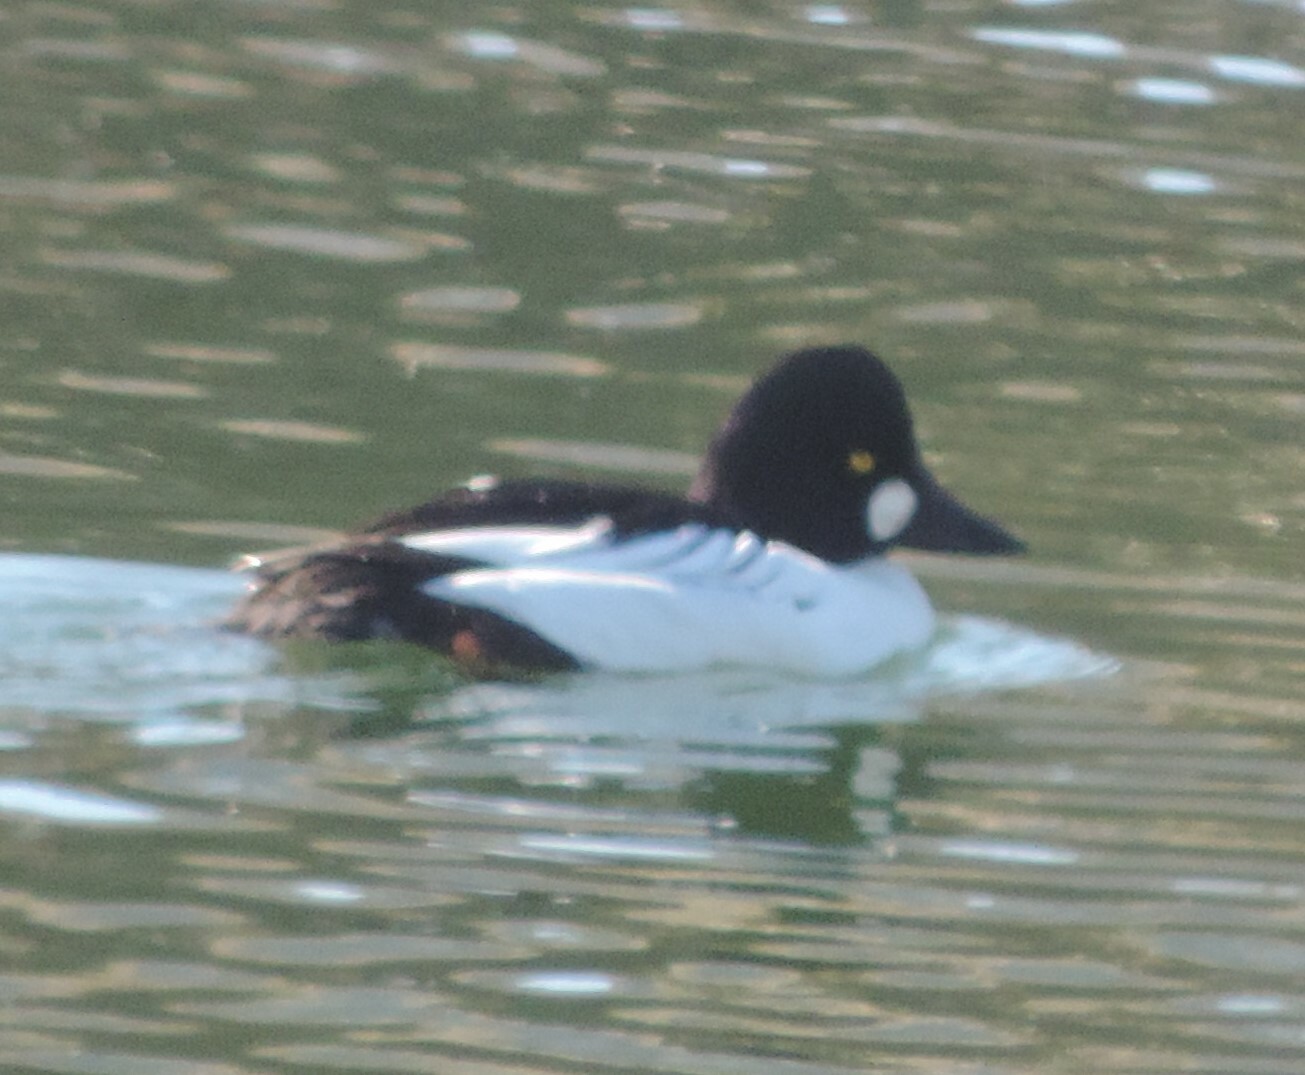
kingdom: Animalia
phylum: Chordata
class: Aves
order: Anseriformes
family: Anatidae
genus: Bucephala
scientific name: Bucephala clangula
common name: Common goldeneye
